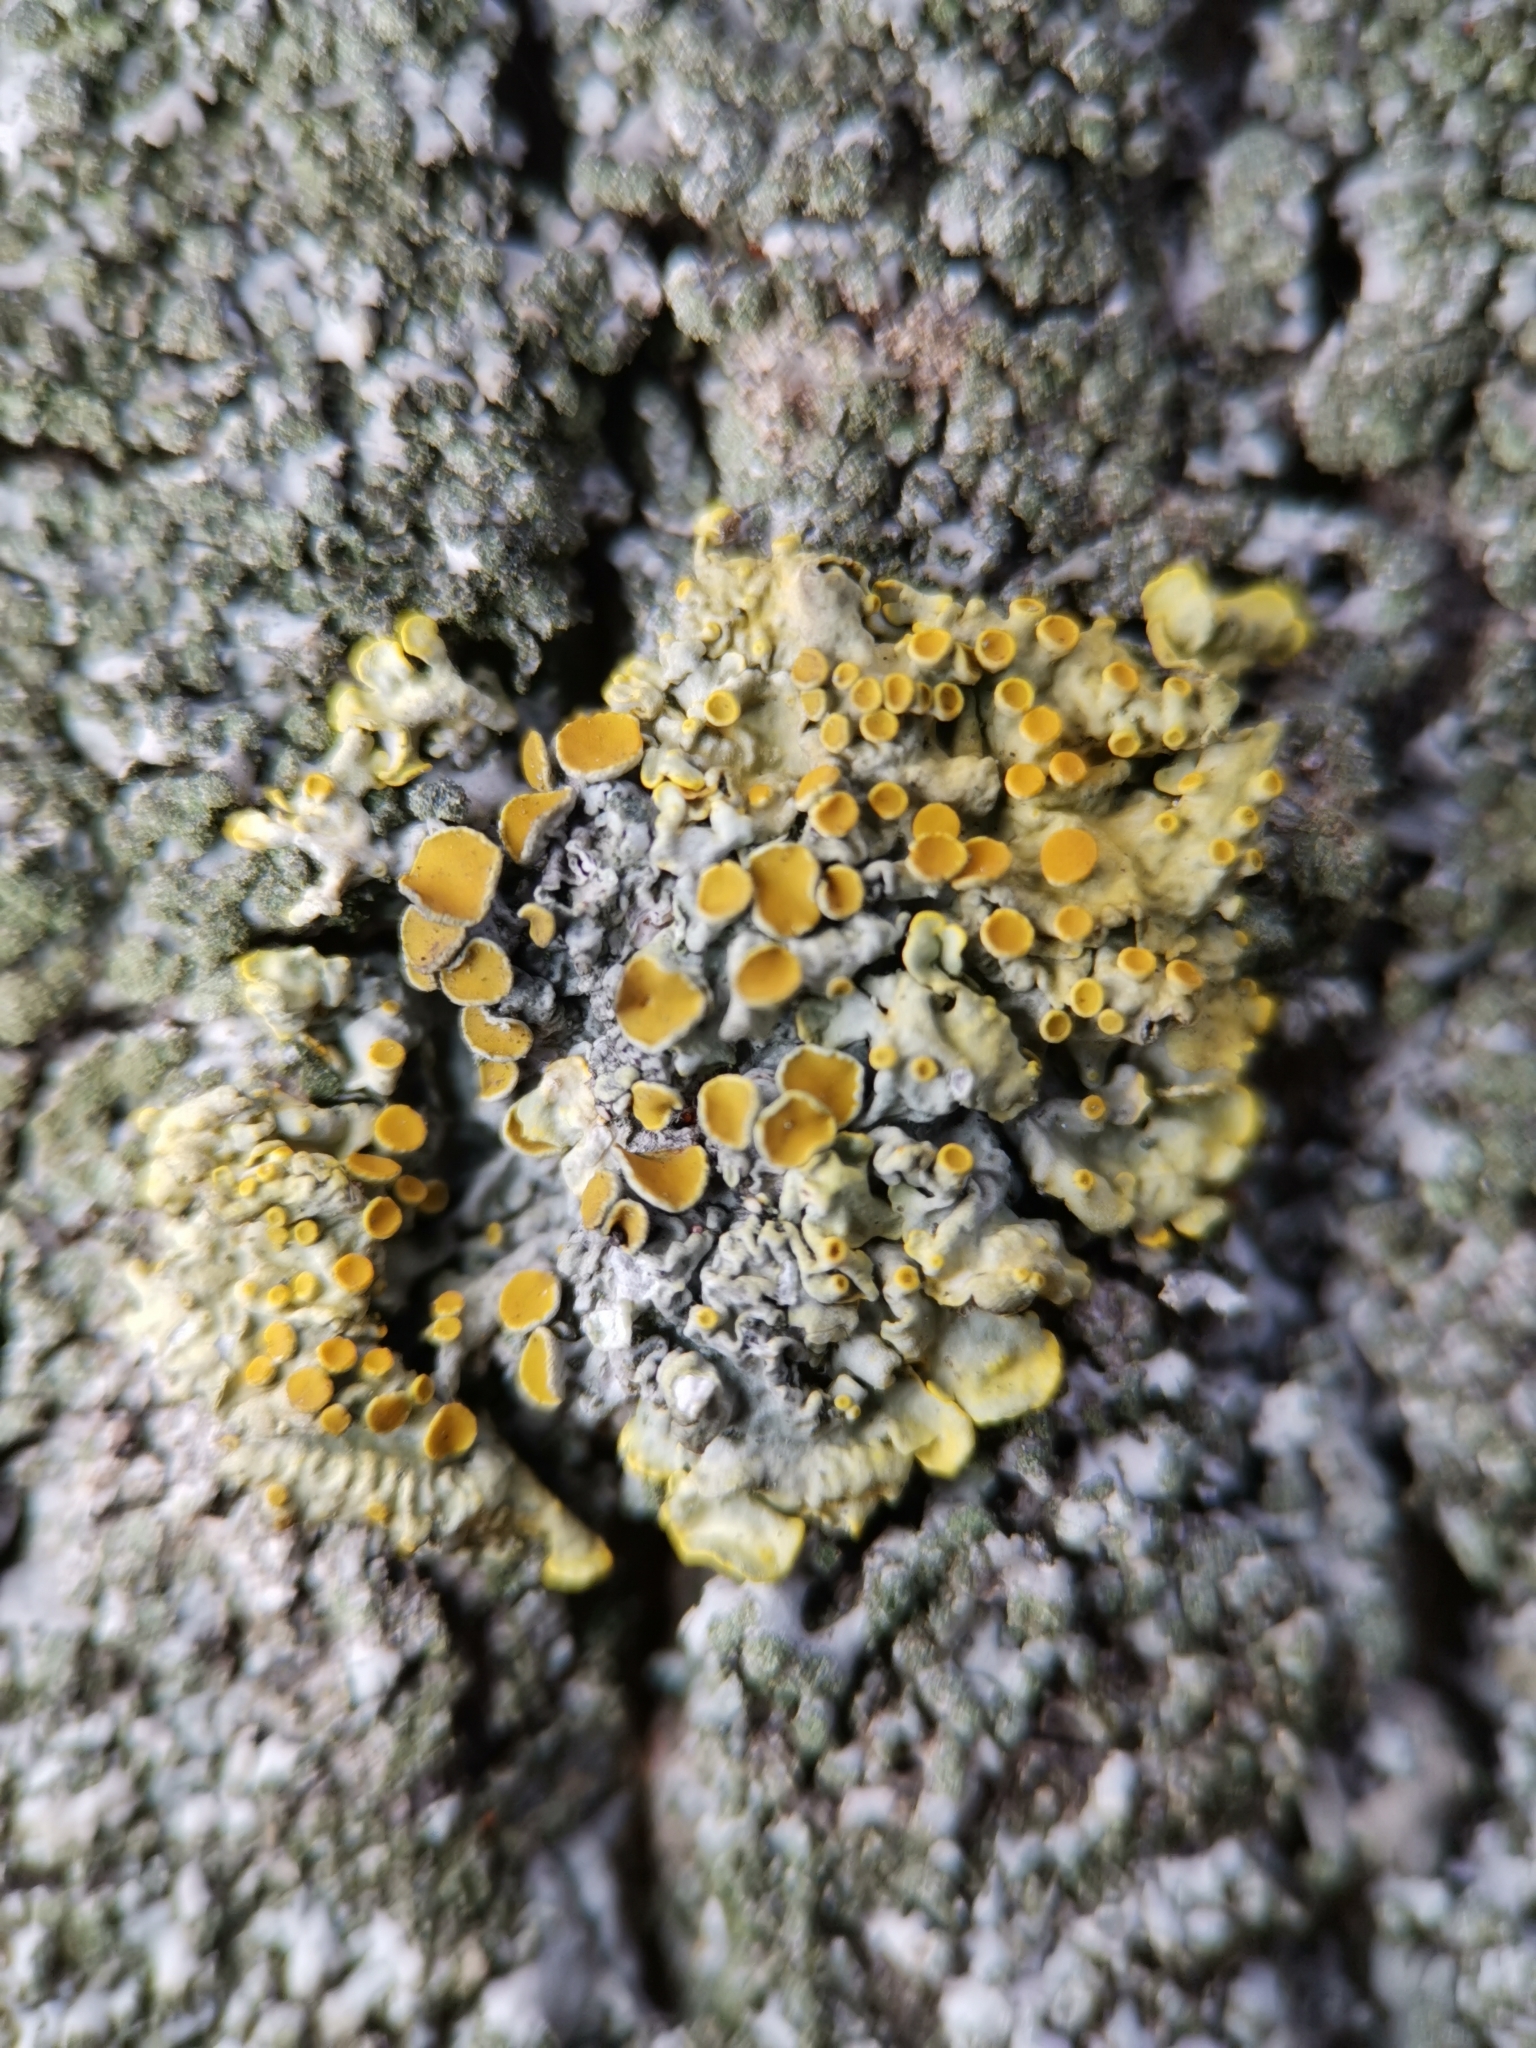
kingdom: Fungi
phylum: Ascomycota
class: Lecanoromycetes
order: Teloschistales
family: Teloschistaceae
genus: Xanthoria
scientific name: Xanthoria parietina
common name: Common orange lichen
